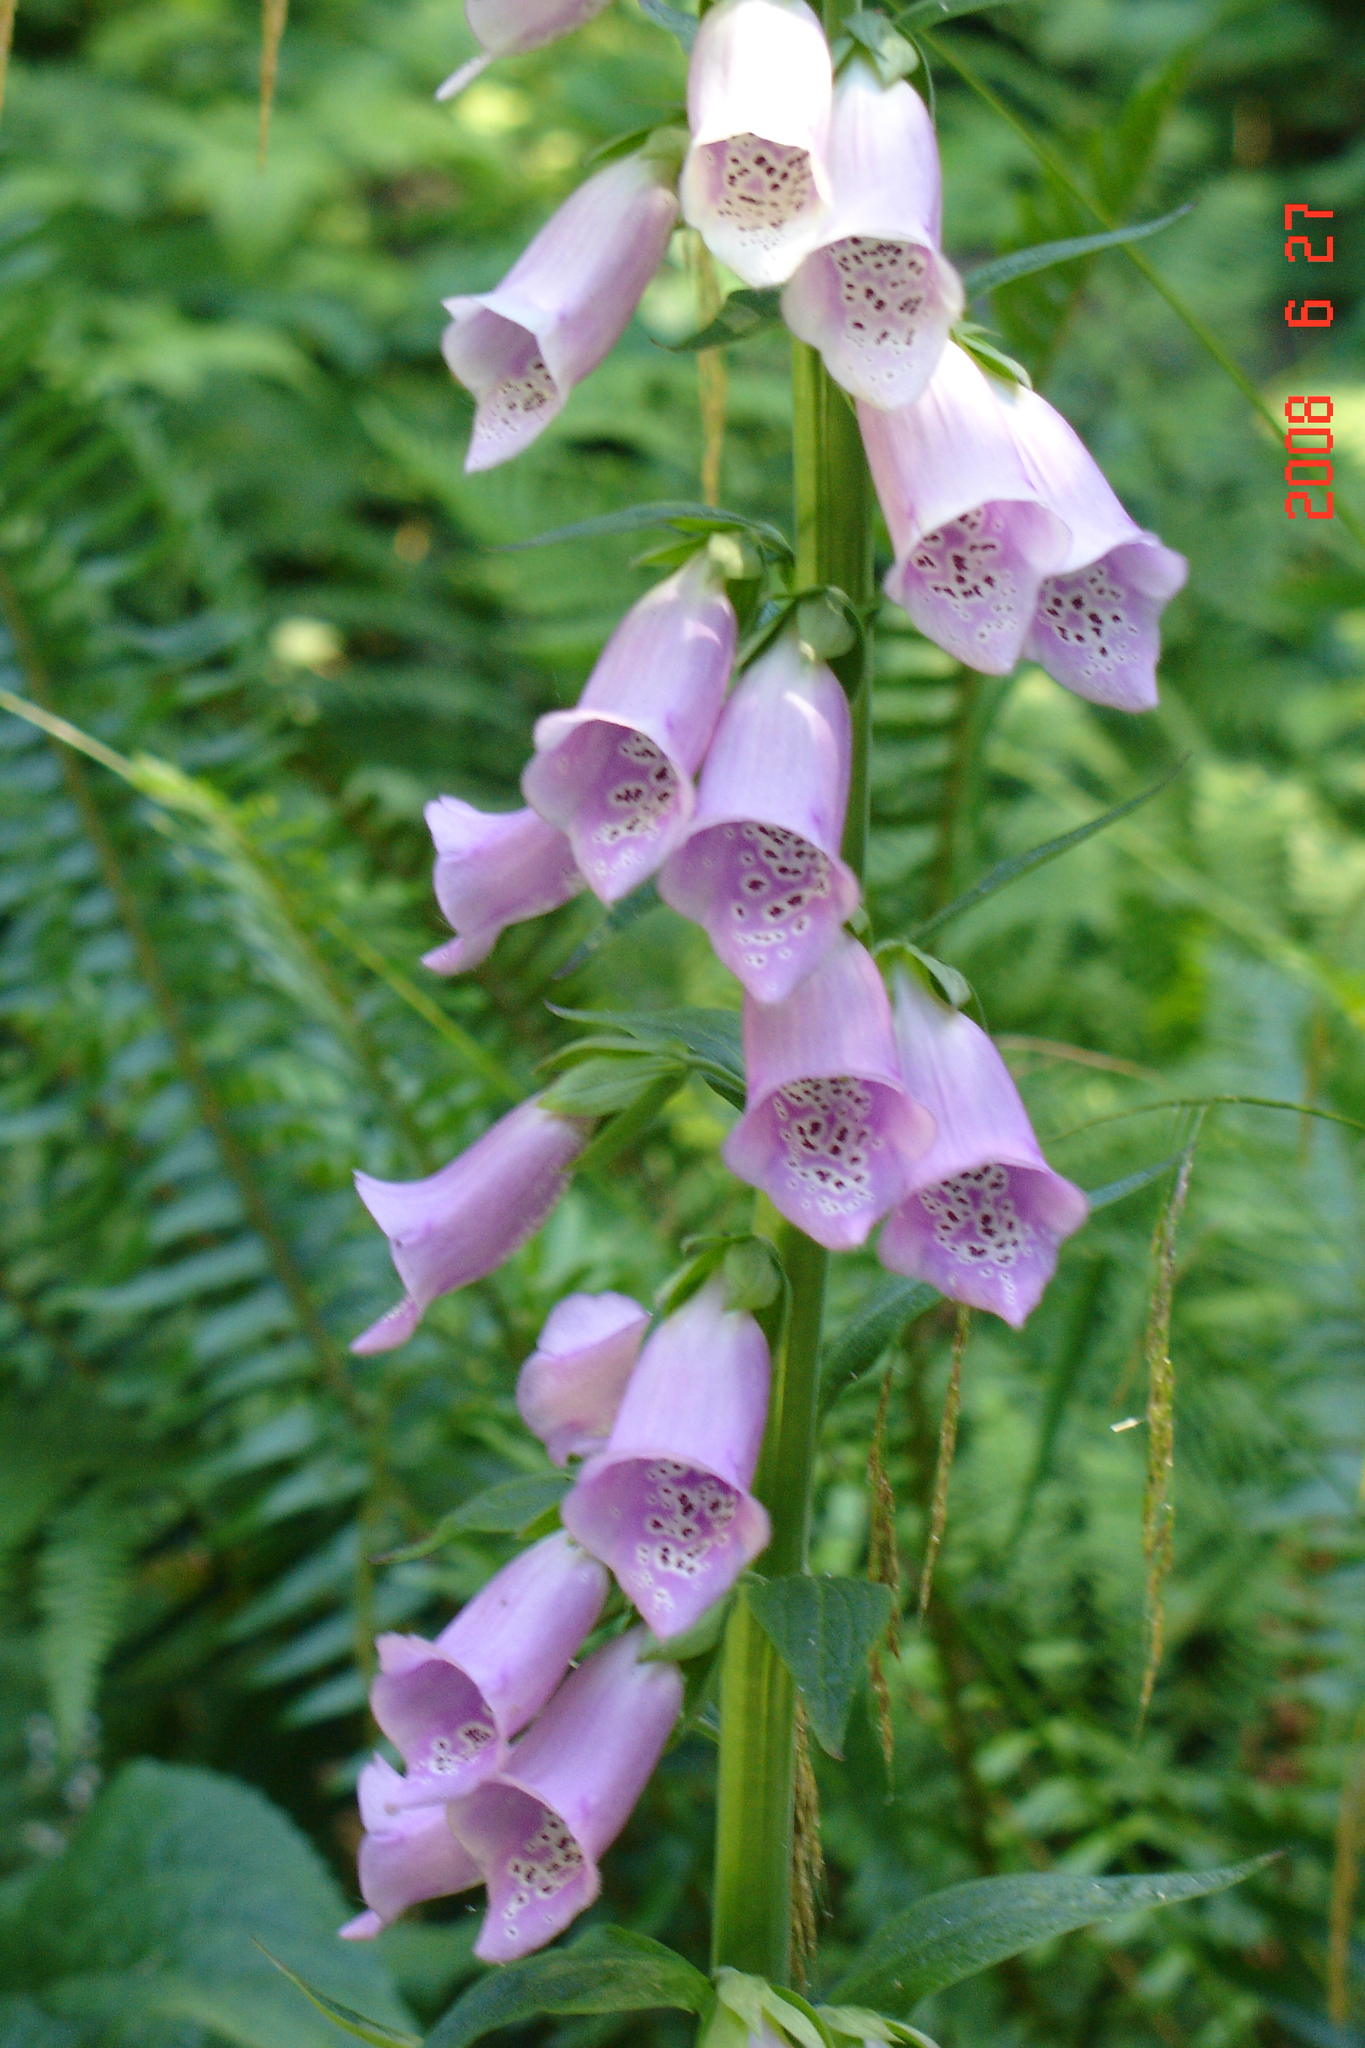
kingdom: Plantae
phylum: Tracheophyta
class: Magnoliopsida
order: Lamiales
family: Plantaginaceae
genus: Digitalis
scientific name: Digitalis purpurea
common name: Foxglove
